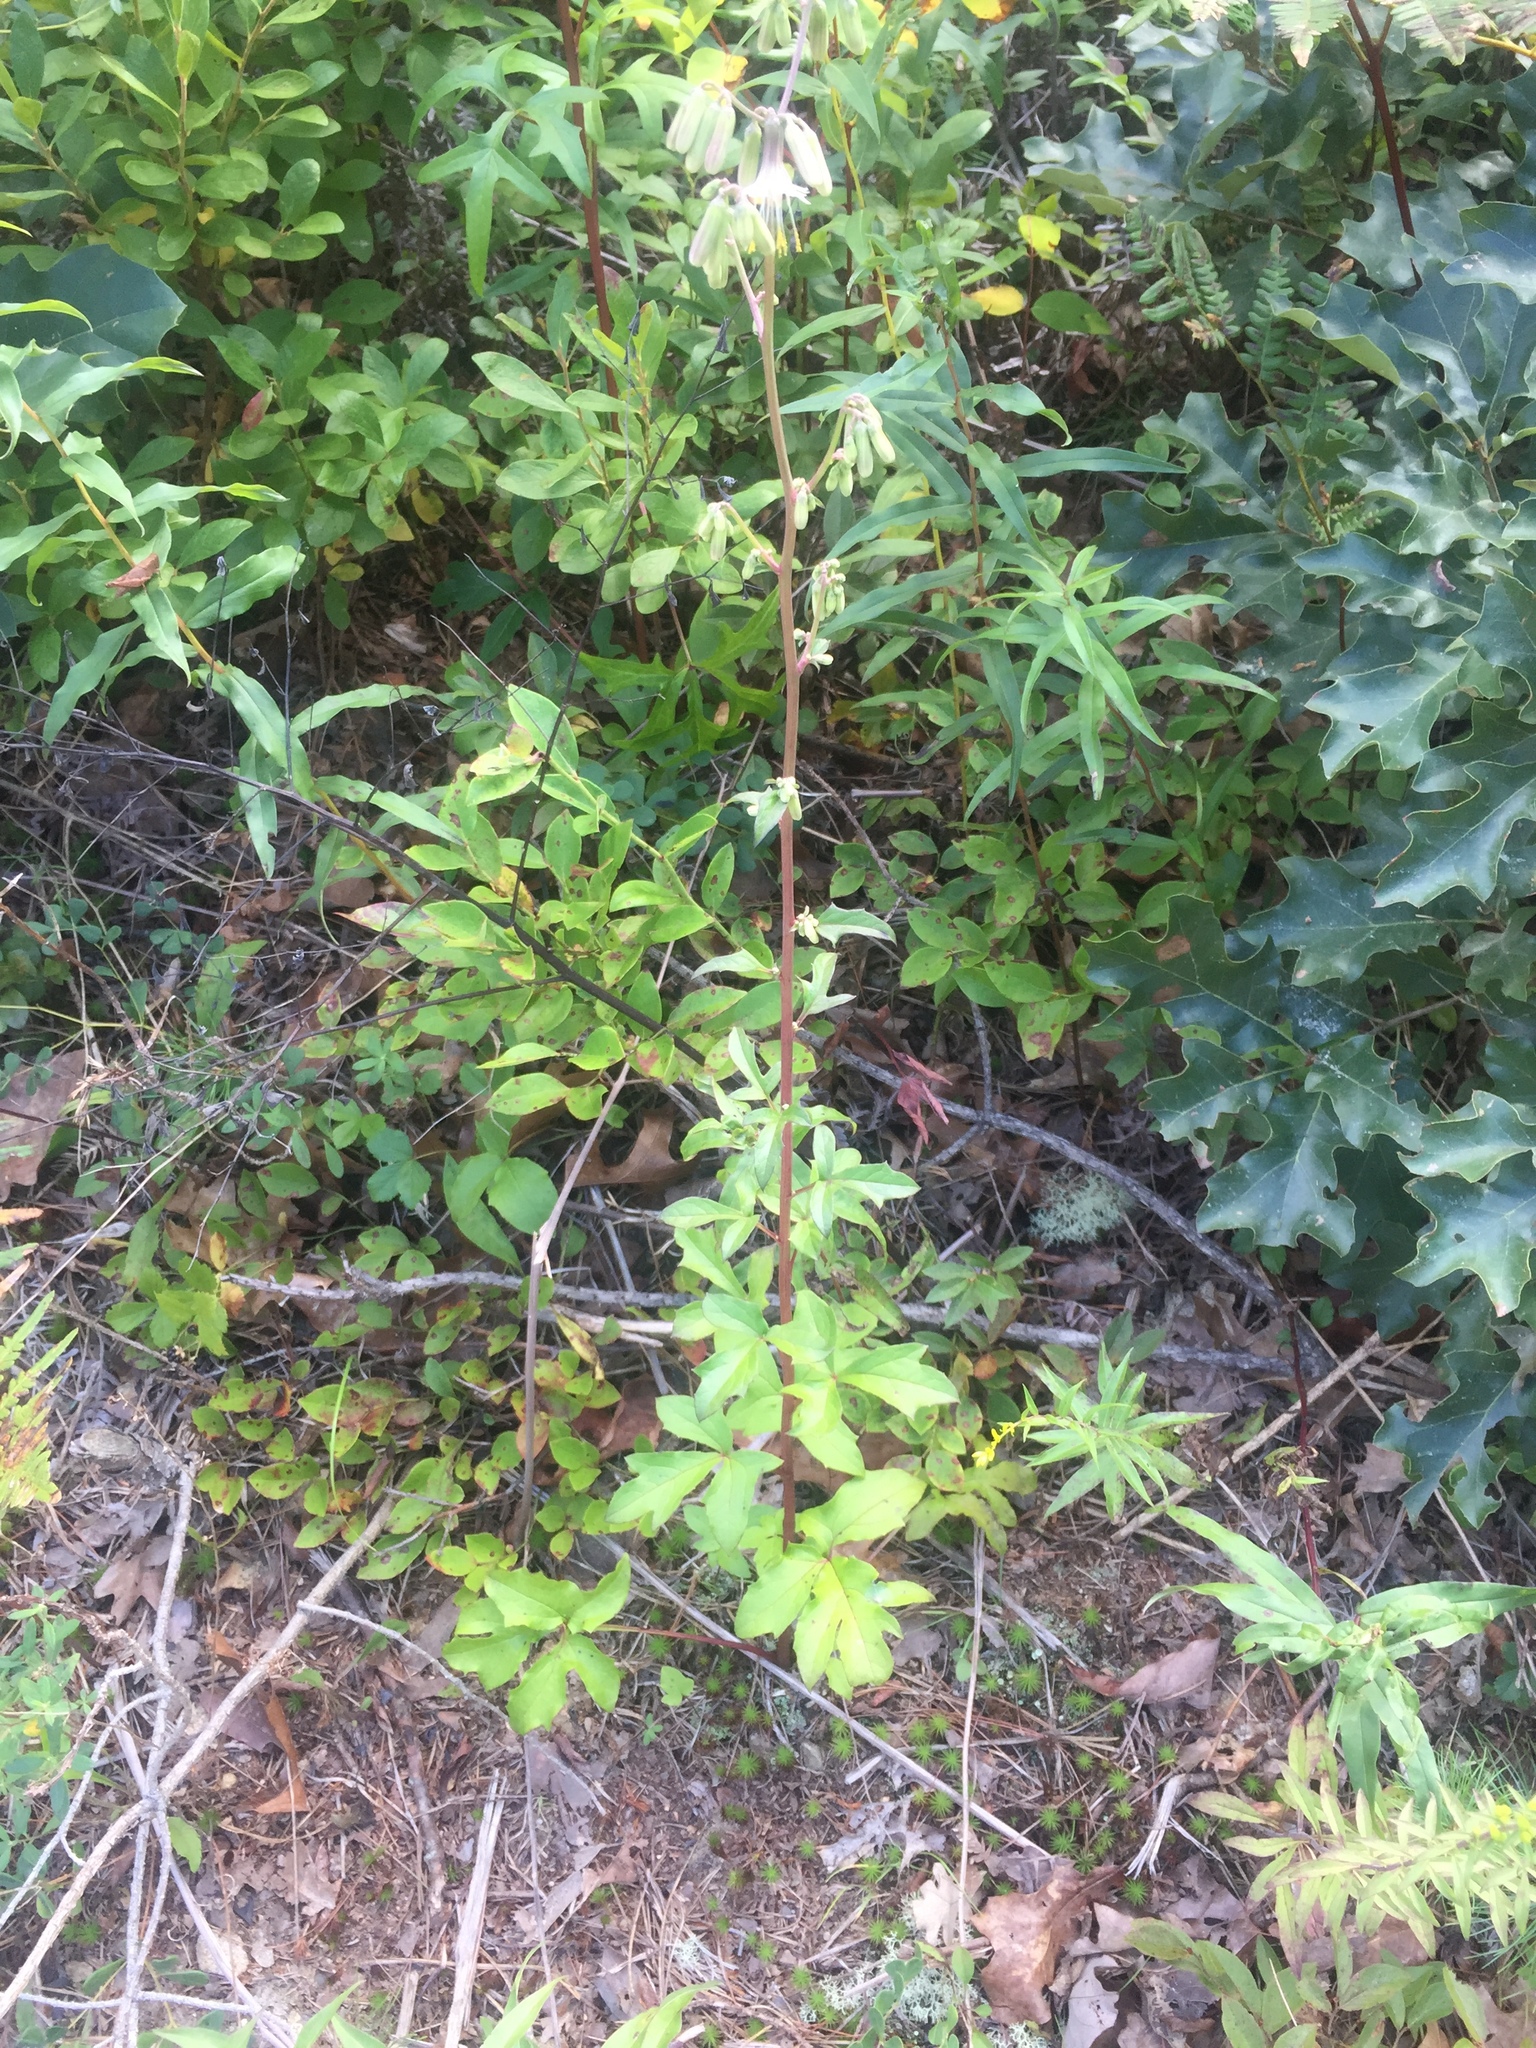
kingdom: Plantae
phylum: Tracheophyta
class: Magnoliopsida
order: Asterales
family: Asteraceae
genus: Nabalus
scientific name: Nabalus trifoliolatus
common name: Gall-of-the-earth
